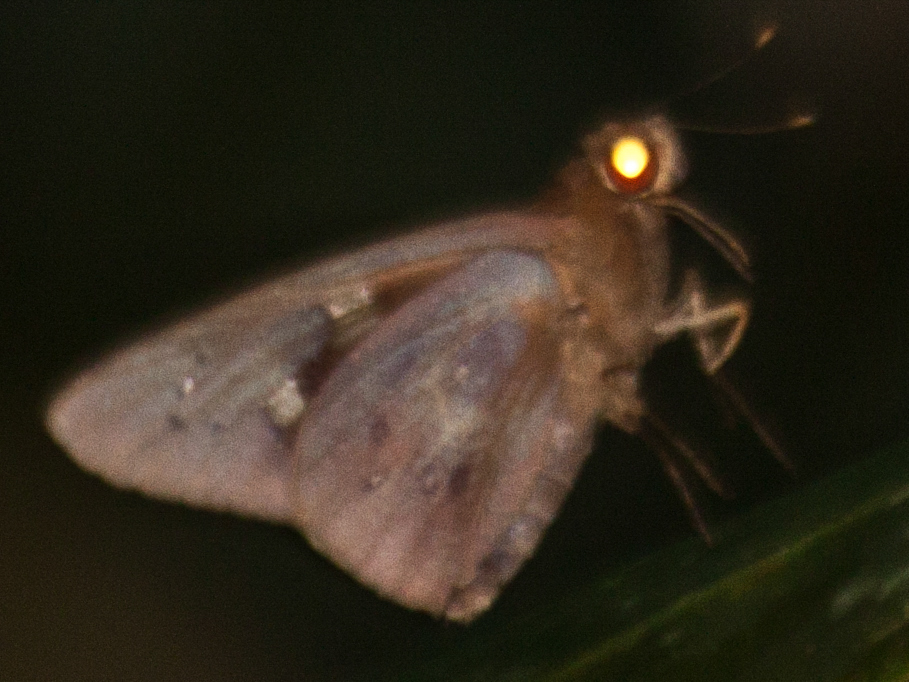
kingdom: Animalia
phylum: Arthropoda
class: Insecta
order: Lepidoptera
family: Hesperiidae
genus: Hidari
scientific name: Hidari irava
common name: Coconut skipper
